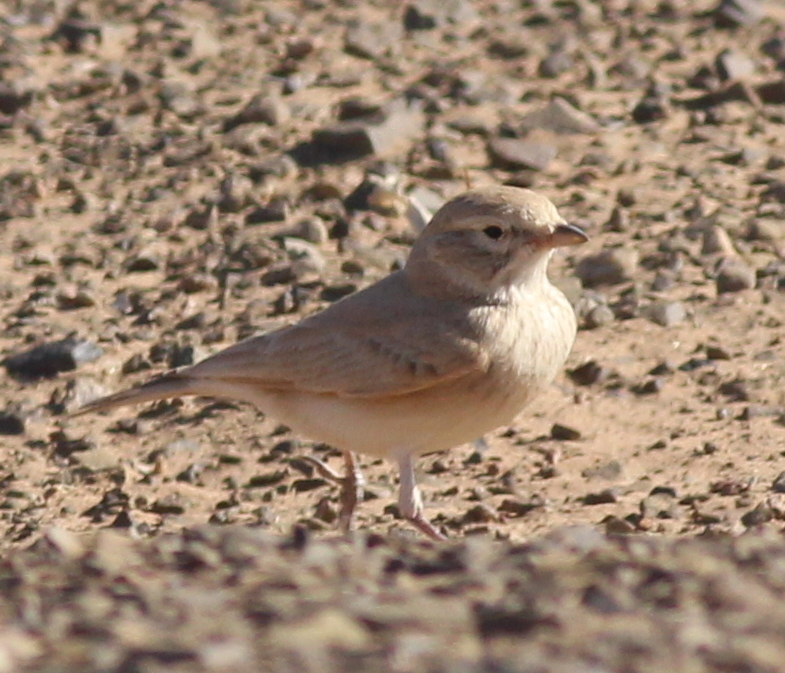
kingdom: Animalia
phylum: Chordata
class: Aves
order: Passeriformes
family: Alaudidae
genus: Ammomanes
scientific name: Ammomanes cinctura
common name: Bar-tailed lark
